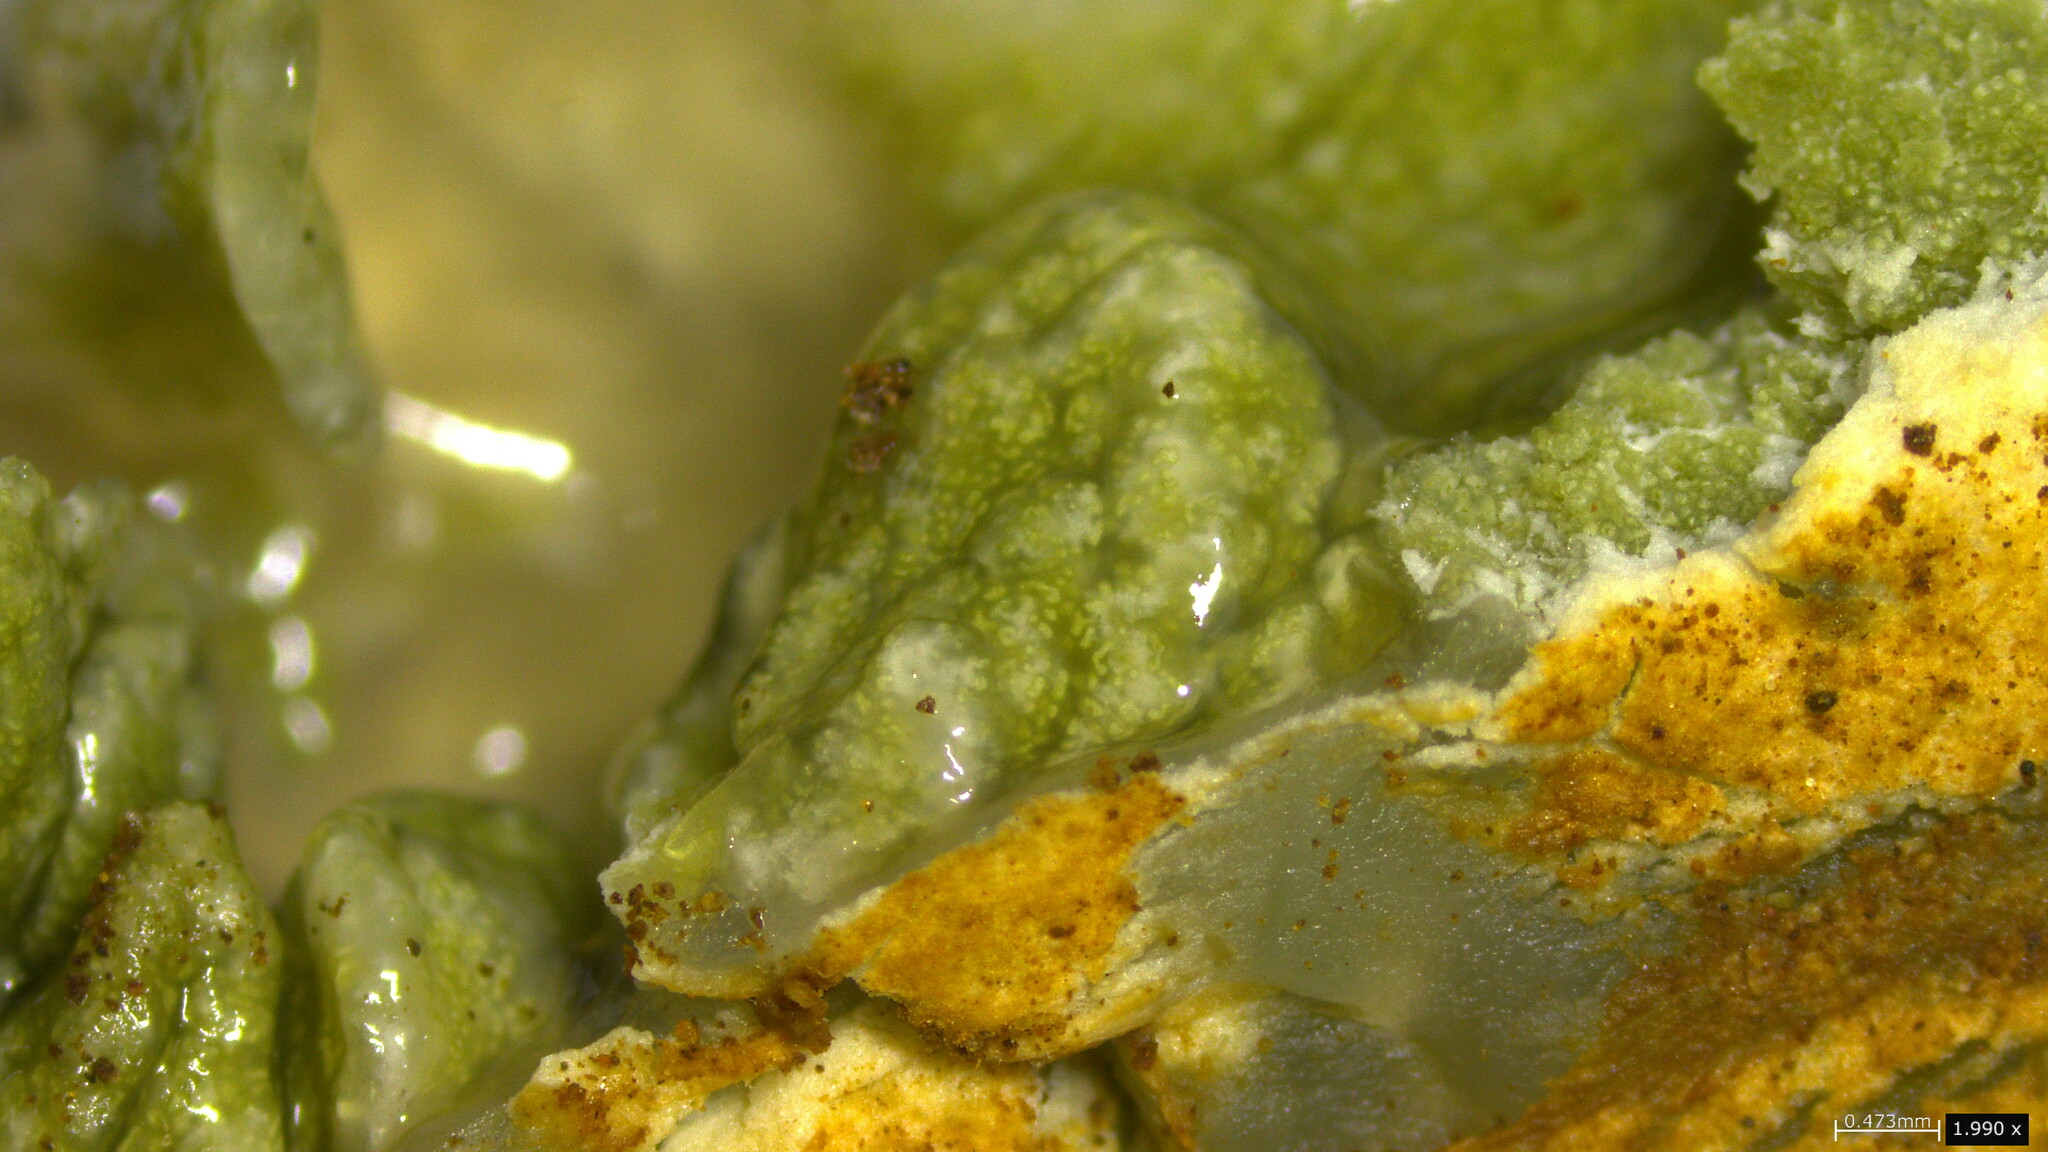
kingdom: Fungi
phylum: Basidiomycota
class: Agaricomycetes
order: Hysterangiales
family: Phallogastraceae
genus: Protubera
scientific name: Protubera nipponica
